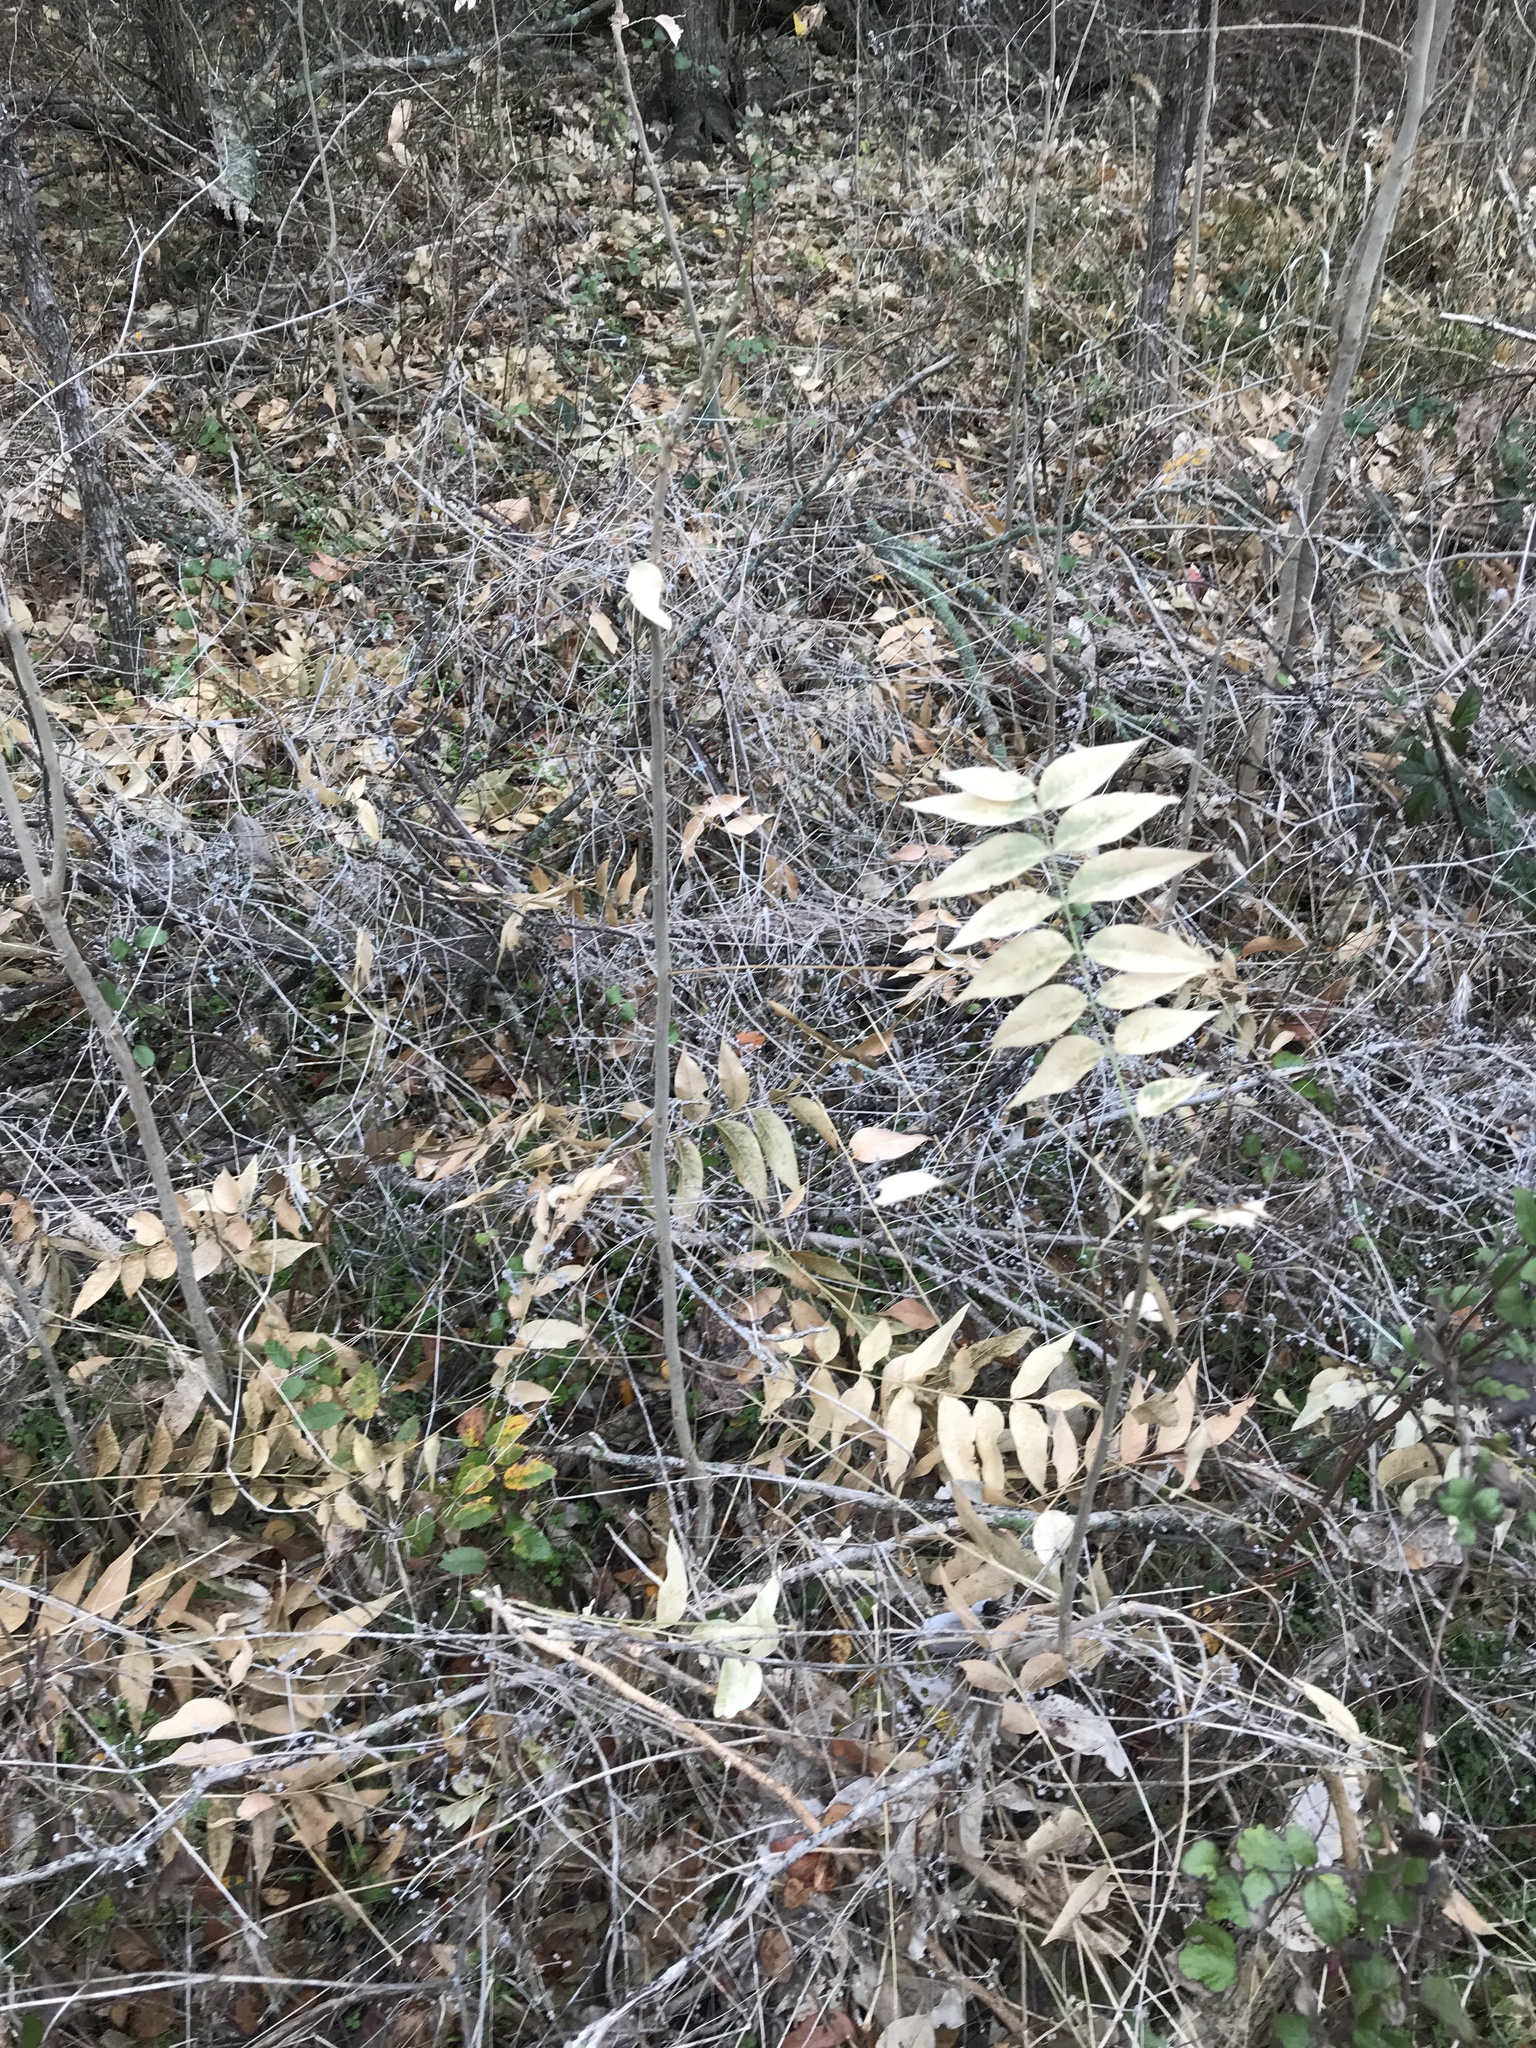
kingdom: Plantae
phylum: Tracheophyta
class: Magnoliopsida
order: Sapindales
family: Sapindaceae
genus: Sapindus
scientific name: Sapindus drummondii
